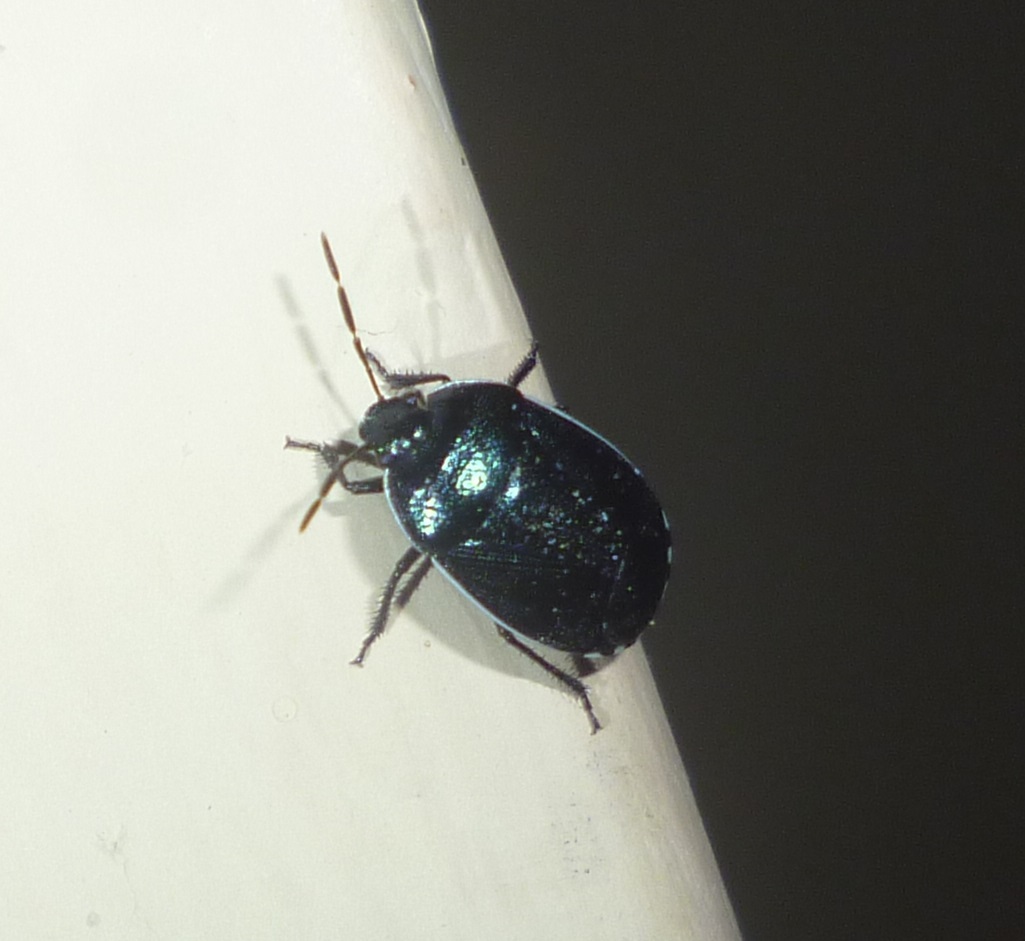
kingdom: Animalia
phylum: Arthropoda
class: Insecta
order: Hemiptera
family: Cydnidae
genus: Canthophorus
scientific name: Canthophorus melanopterus
